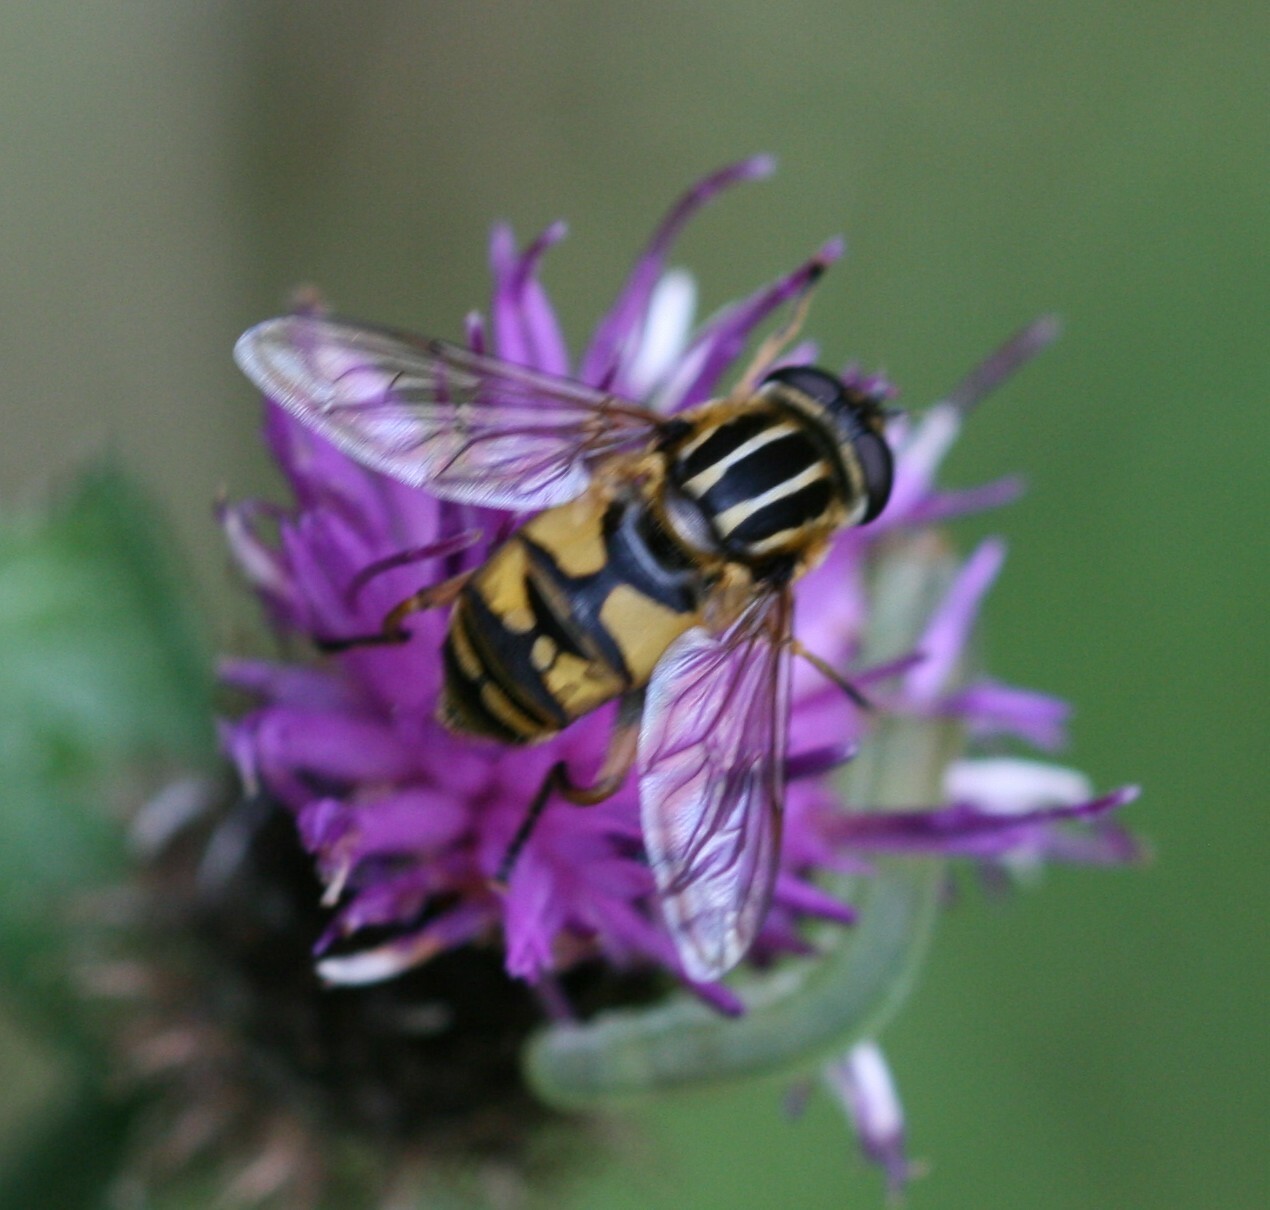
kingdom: Animalia
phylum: Arthropoda
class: Insecta
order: Diptera
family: Syrphidae
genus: Helophilus
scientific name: Helophilus pendulus
